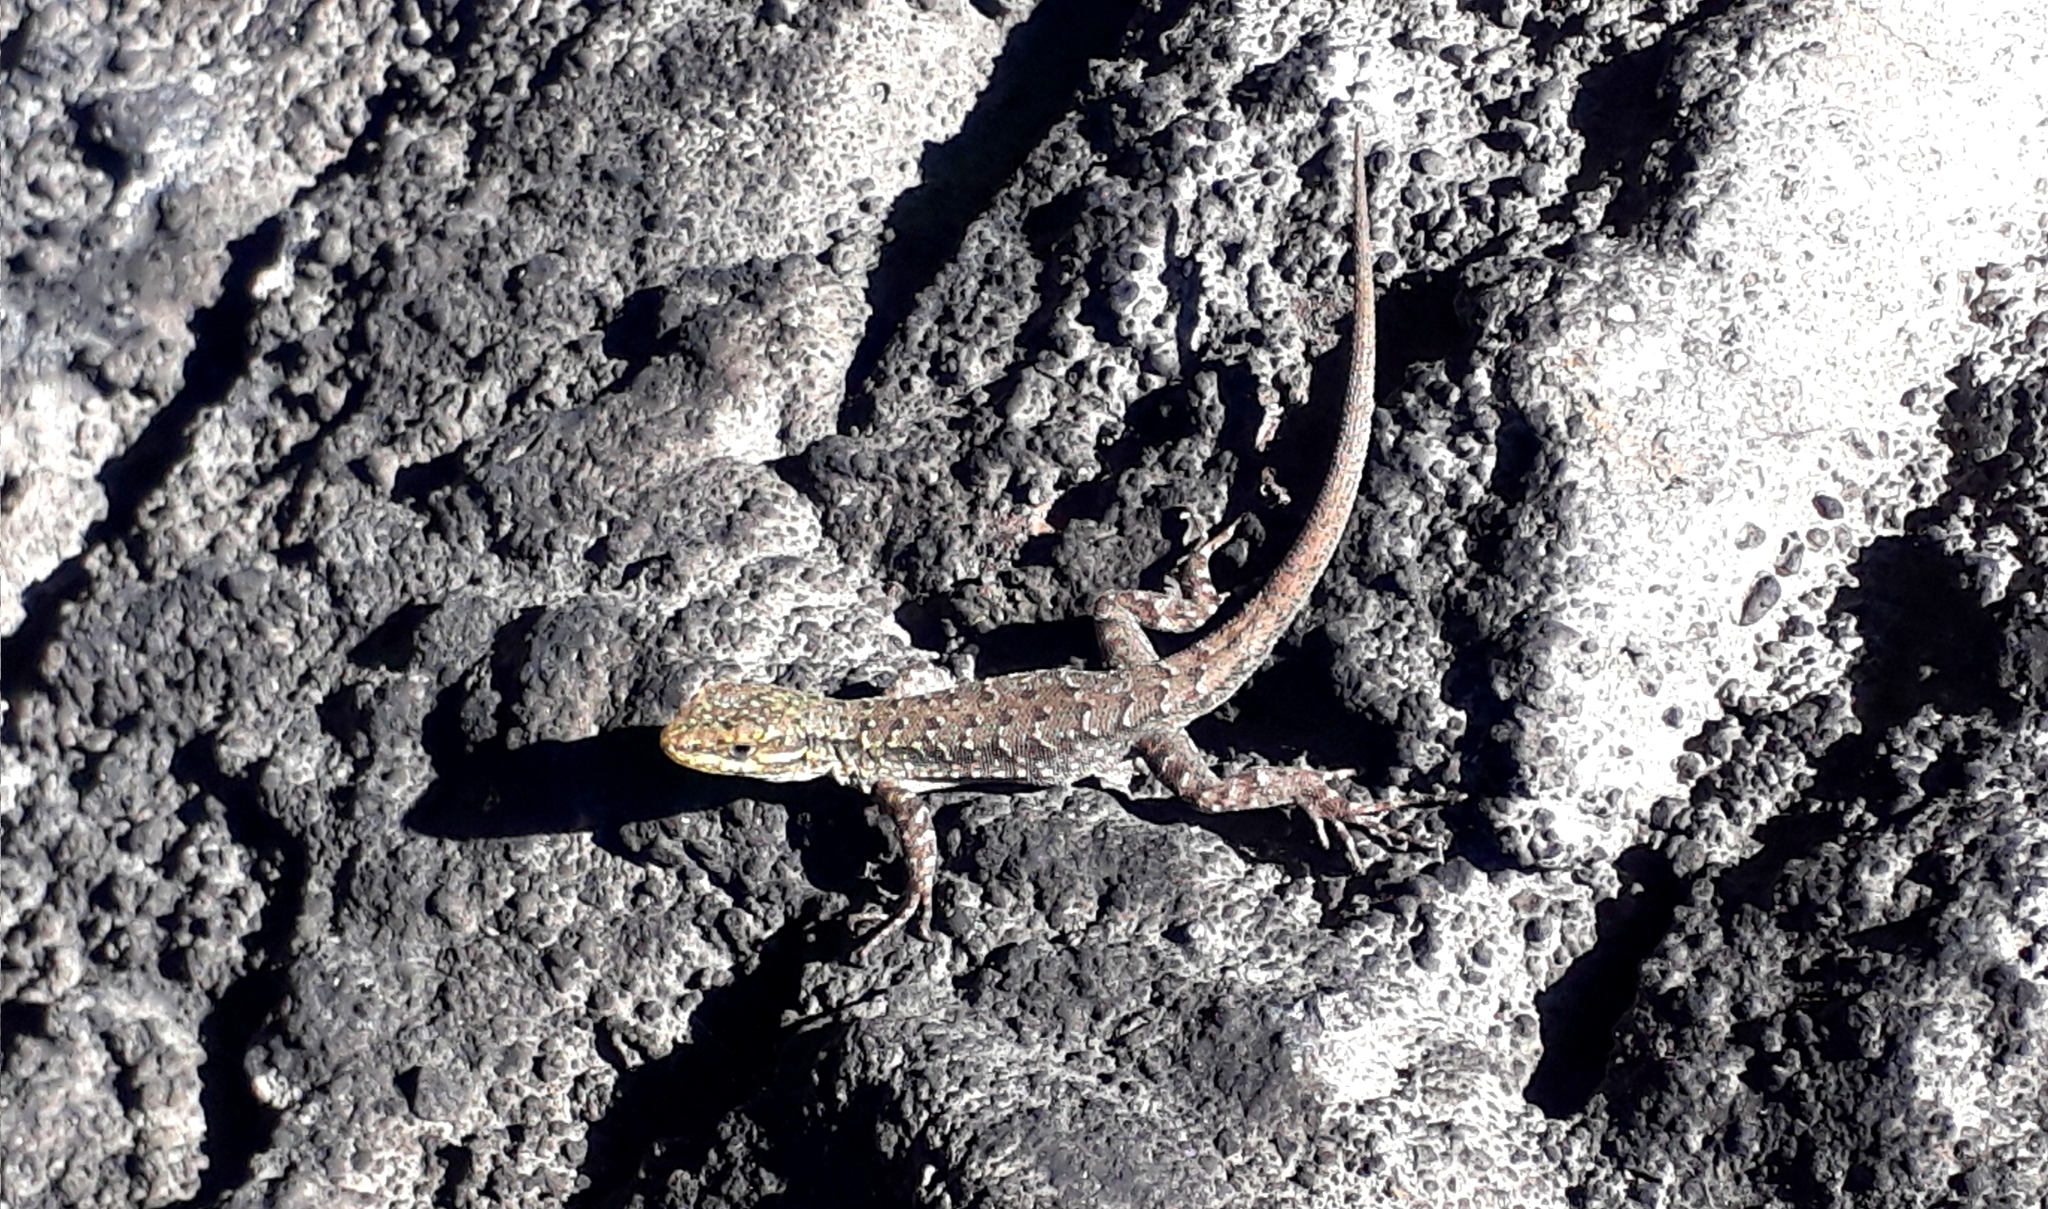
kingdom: Animalia
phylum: Chordata
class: Squamata
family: Liolaemidae
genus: Liolaemus
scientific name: Liolaemus tenuis
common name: Thin tree iguana
